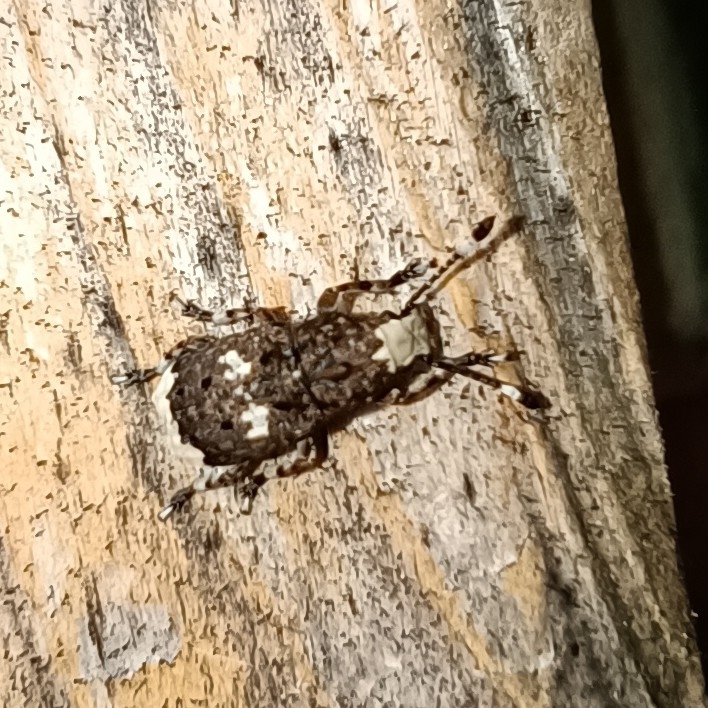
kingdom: Animalia
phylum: Arthropoda
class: Insecta
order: Coleoptera
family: Anthribidae
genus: Platystomos
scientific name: Platystomos albinus
